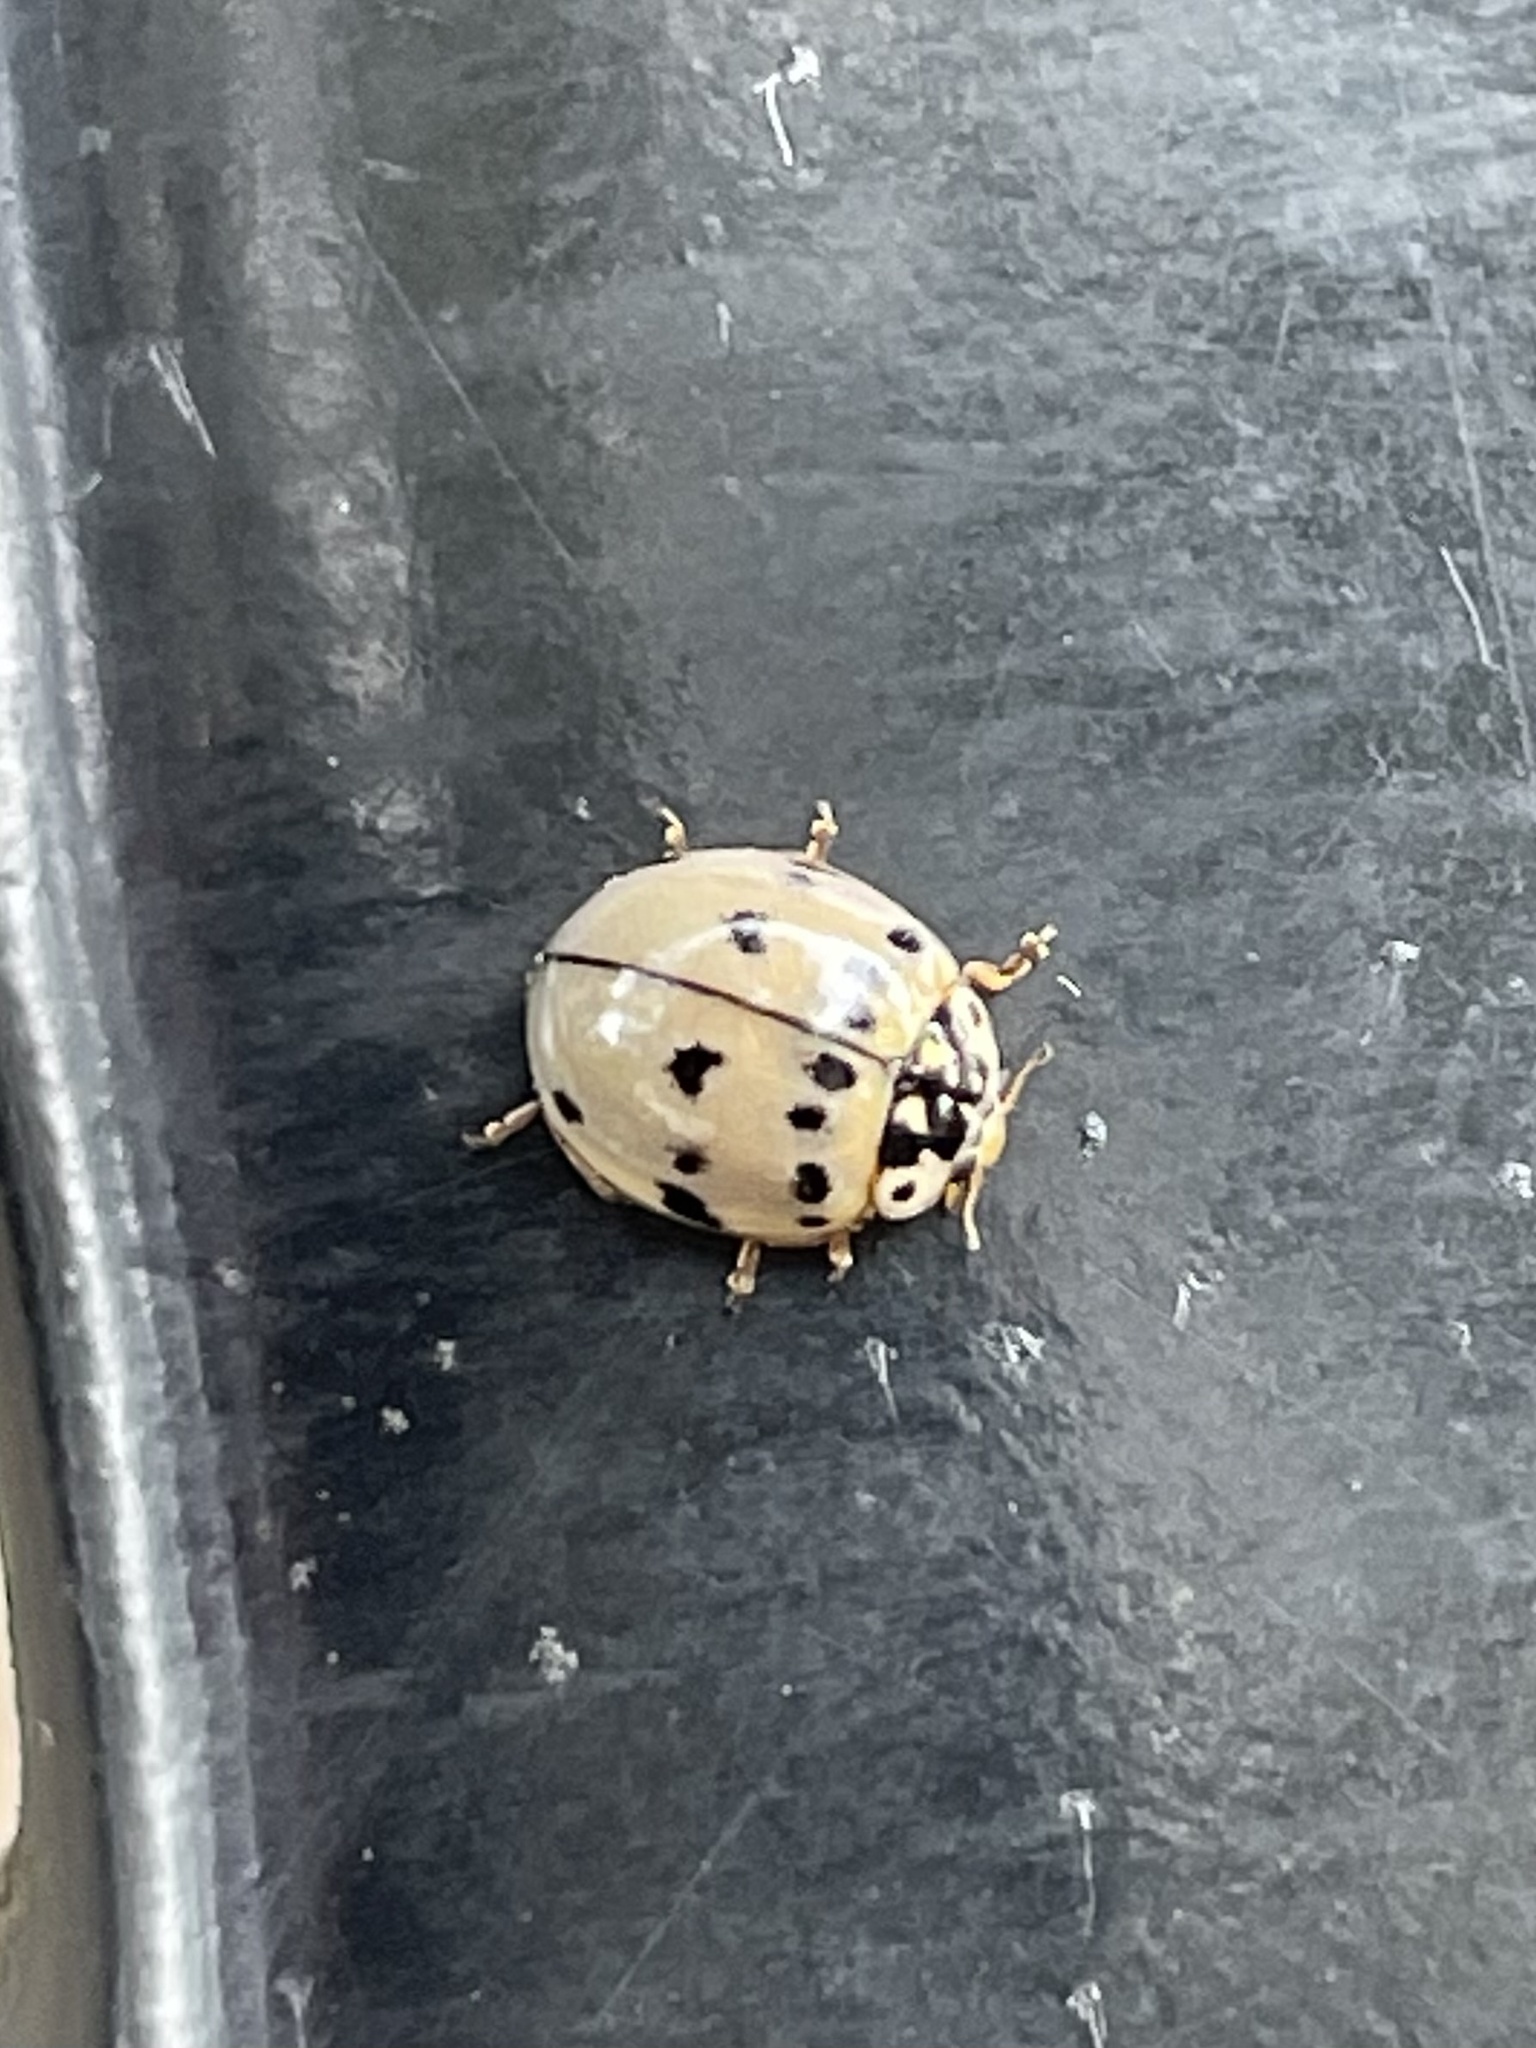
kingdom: Animalia
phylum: Arthropoda
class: Insecta
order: Coleoptera
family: Coccinellidae
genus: Olla
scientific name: Olla v-nigrum
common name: Ashy gray lady beetle
